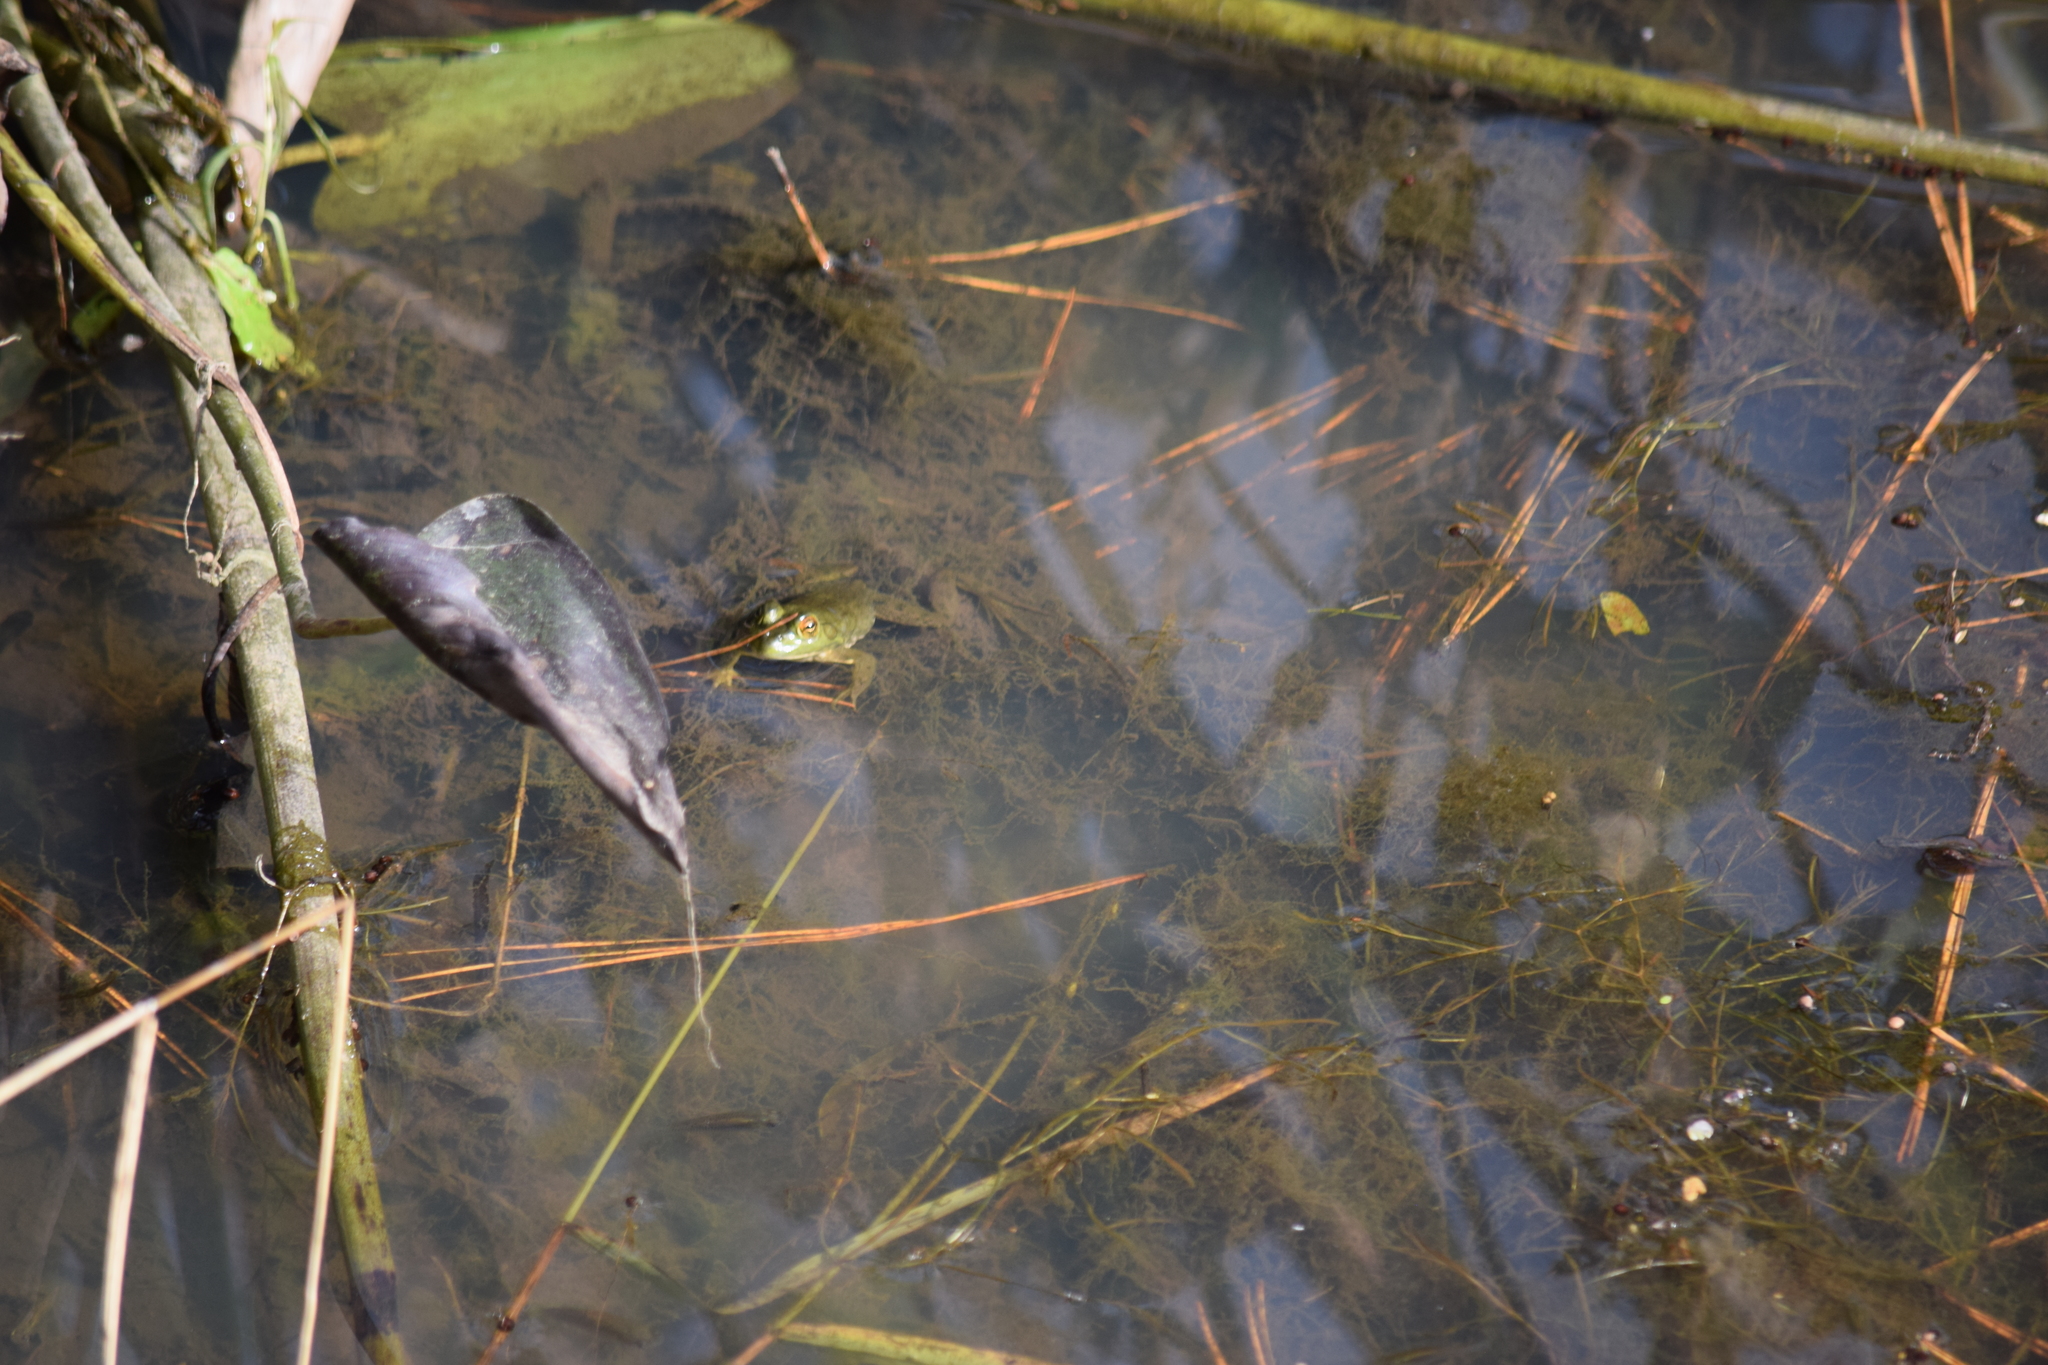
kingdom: Animalia
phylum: Chordata
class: Amphibia
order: Anura
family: Ranidae
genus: Lithobates
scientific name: Lithobates catesbeianus
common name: American bullfrog
